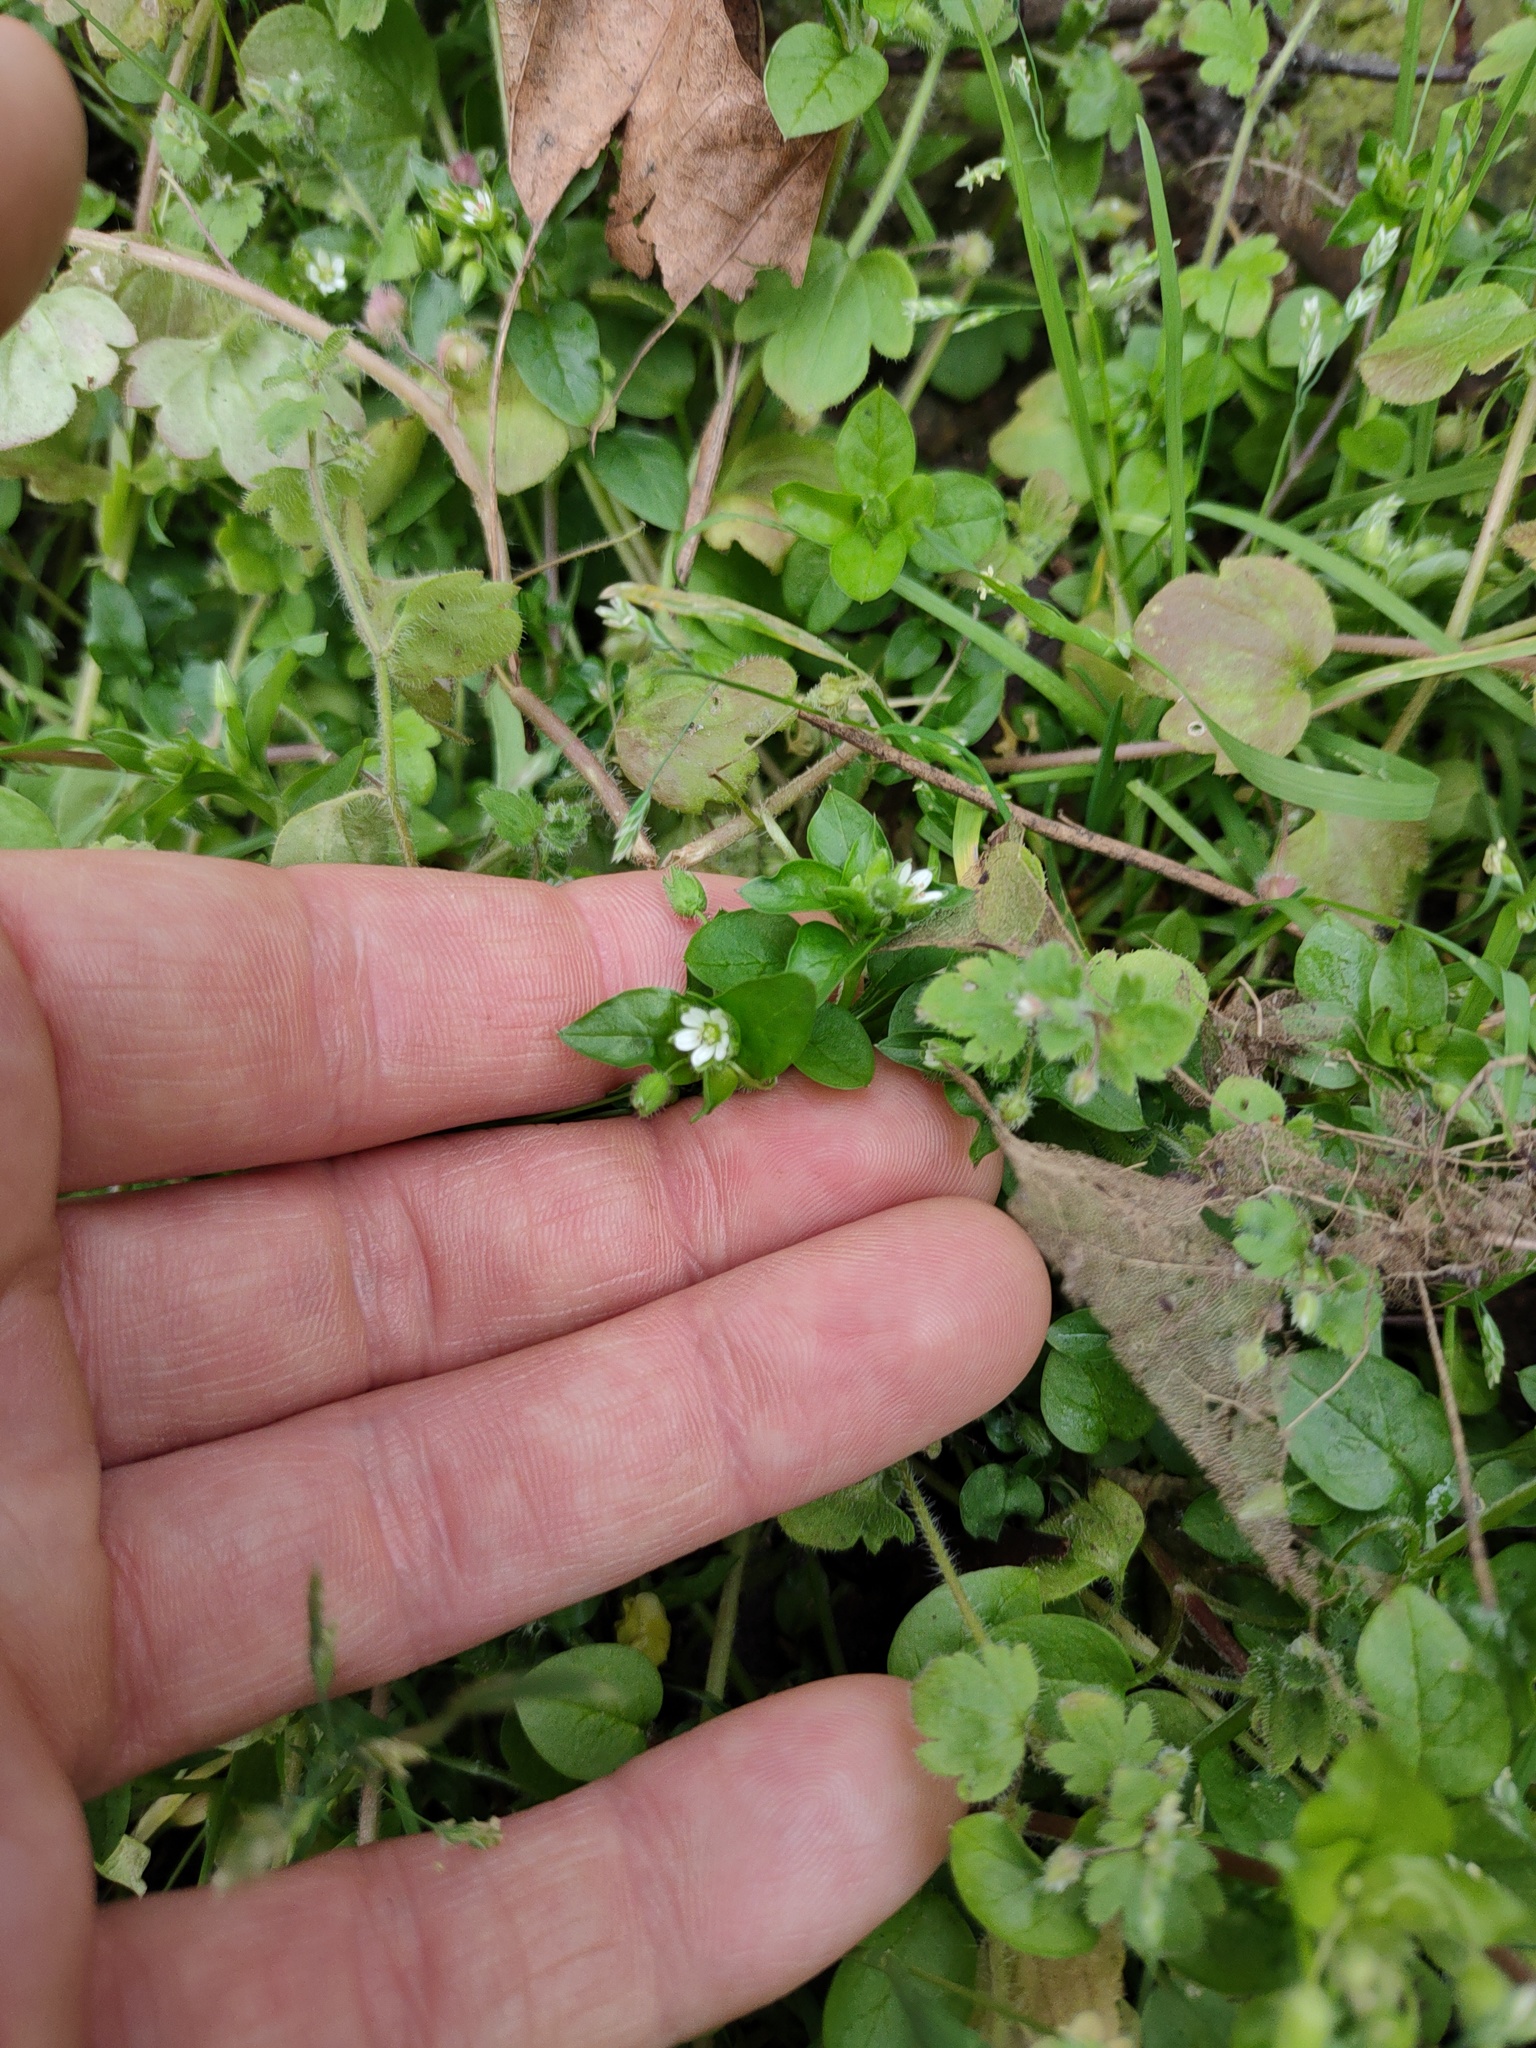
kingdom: Plantae
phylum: Tracheophyta
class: Magnoliopsida
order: Caryophyllales
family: Caryophyllaceae
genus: Stellaria
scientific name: Stellaria media
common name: Common chickweed
